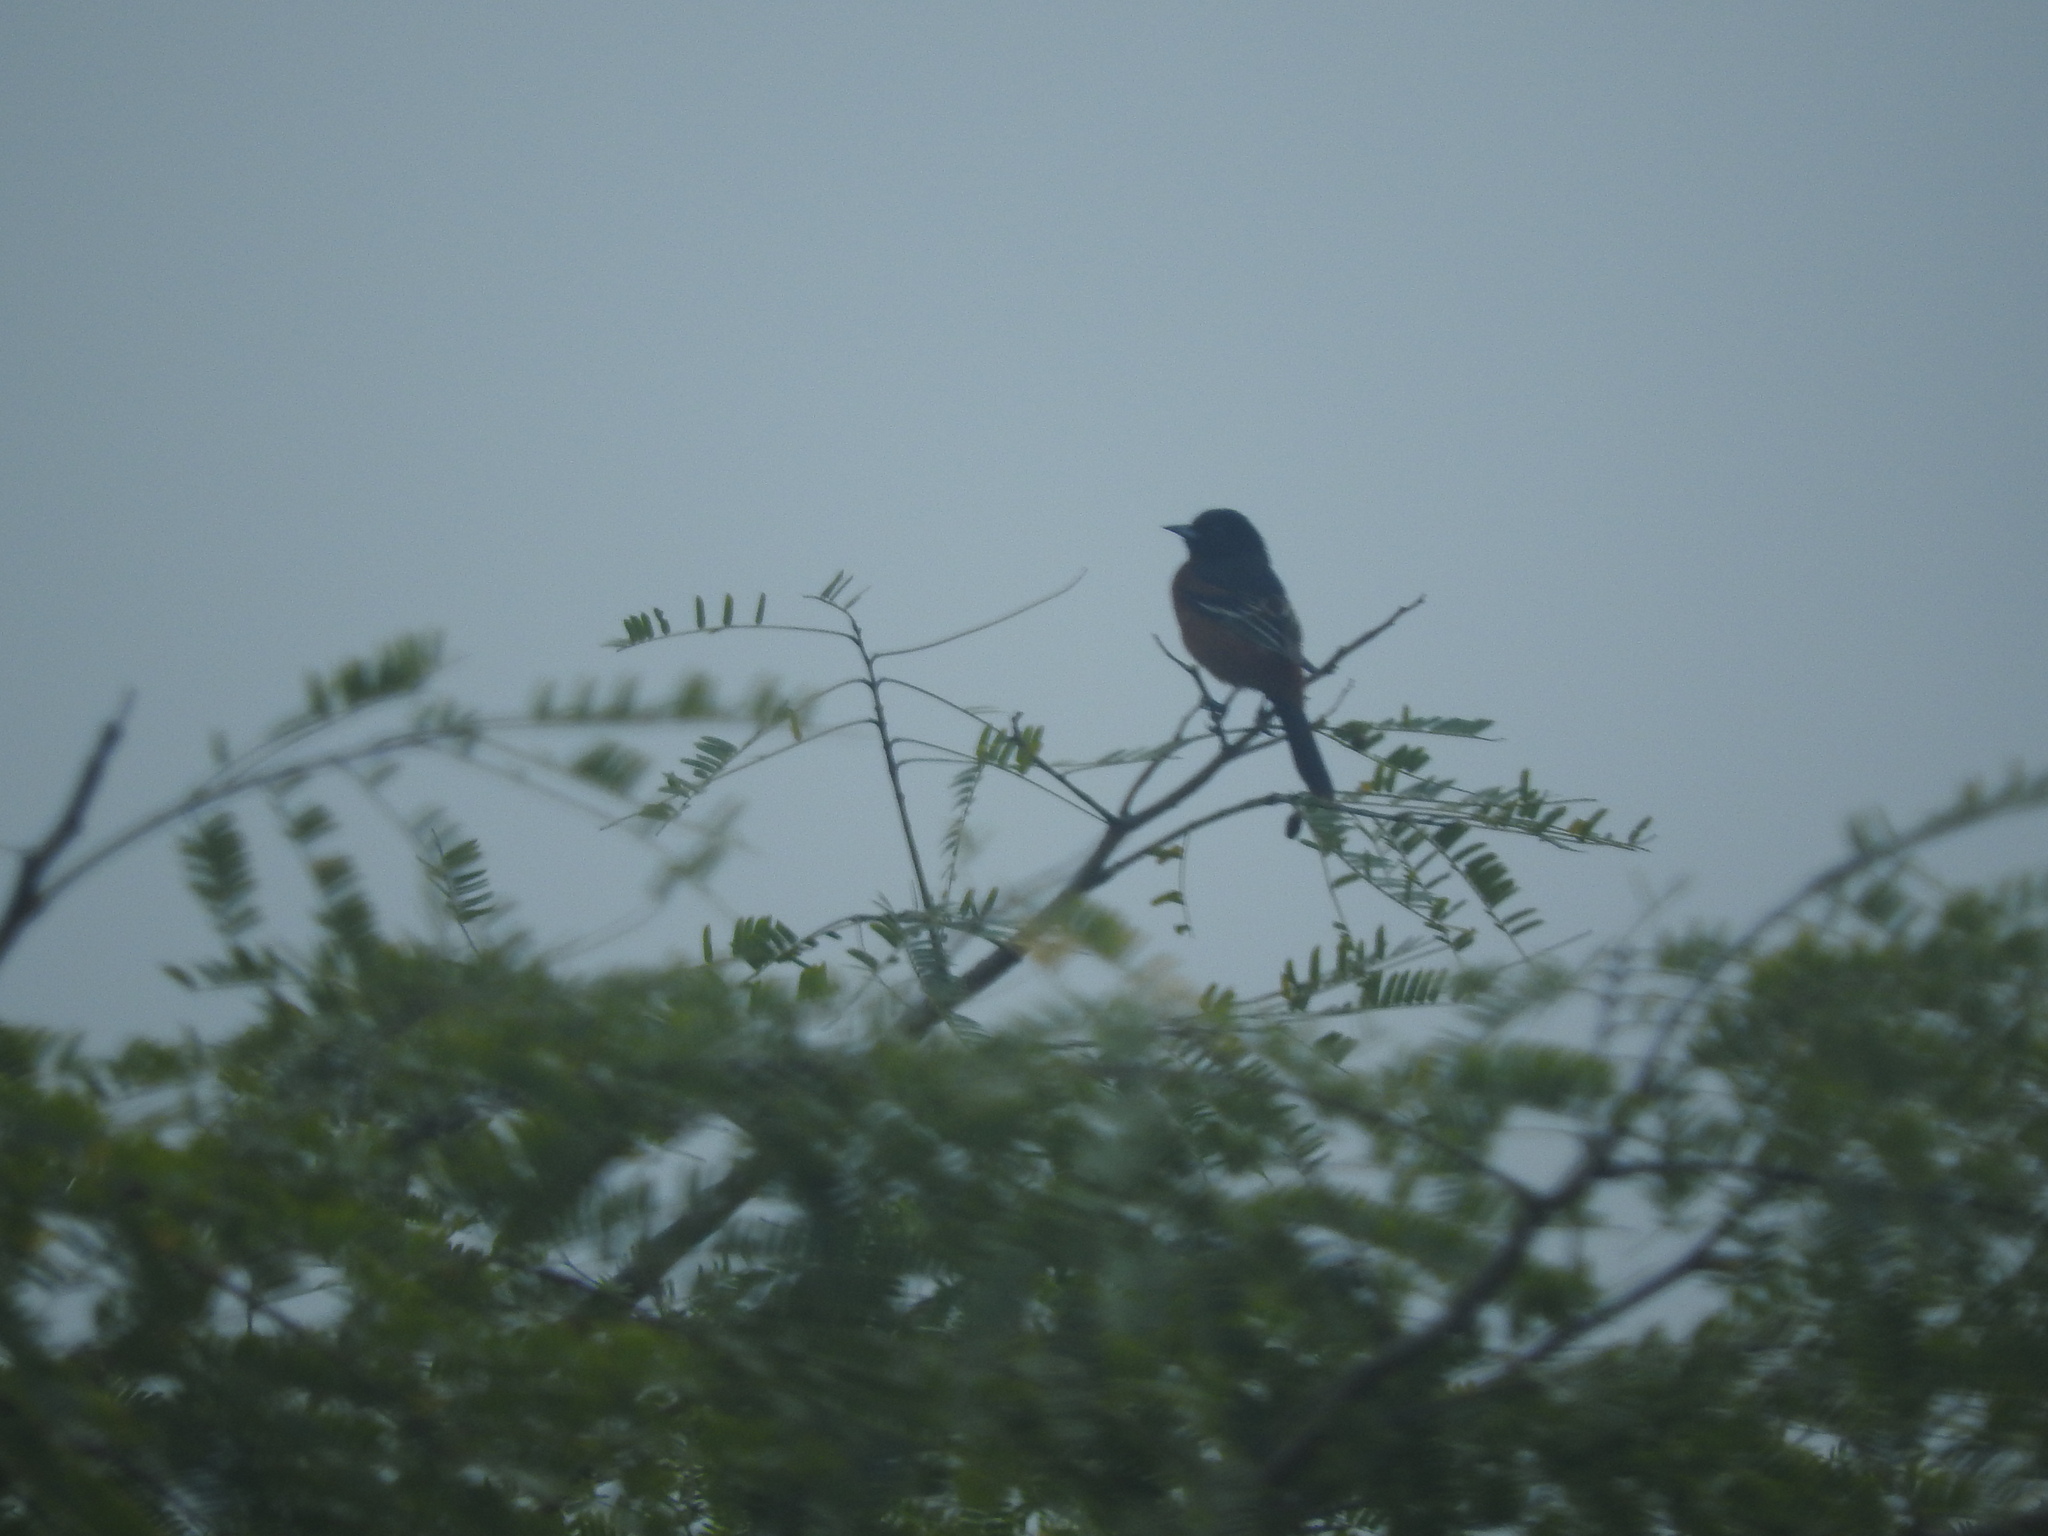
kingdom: Animalia
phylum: Chordata
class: Aves
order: Passeriformes
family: Icteridae
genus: Icterus
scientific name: Icterus spurius
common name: Orchard oriole
